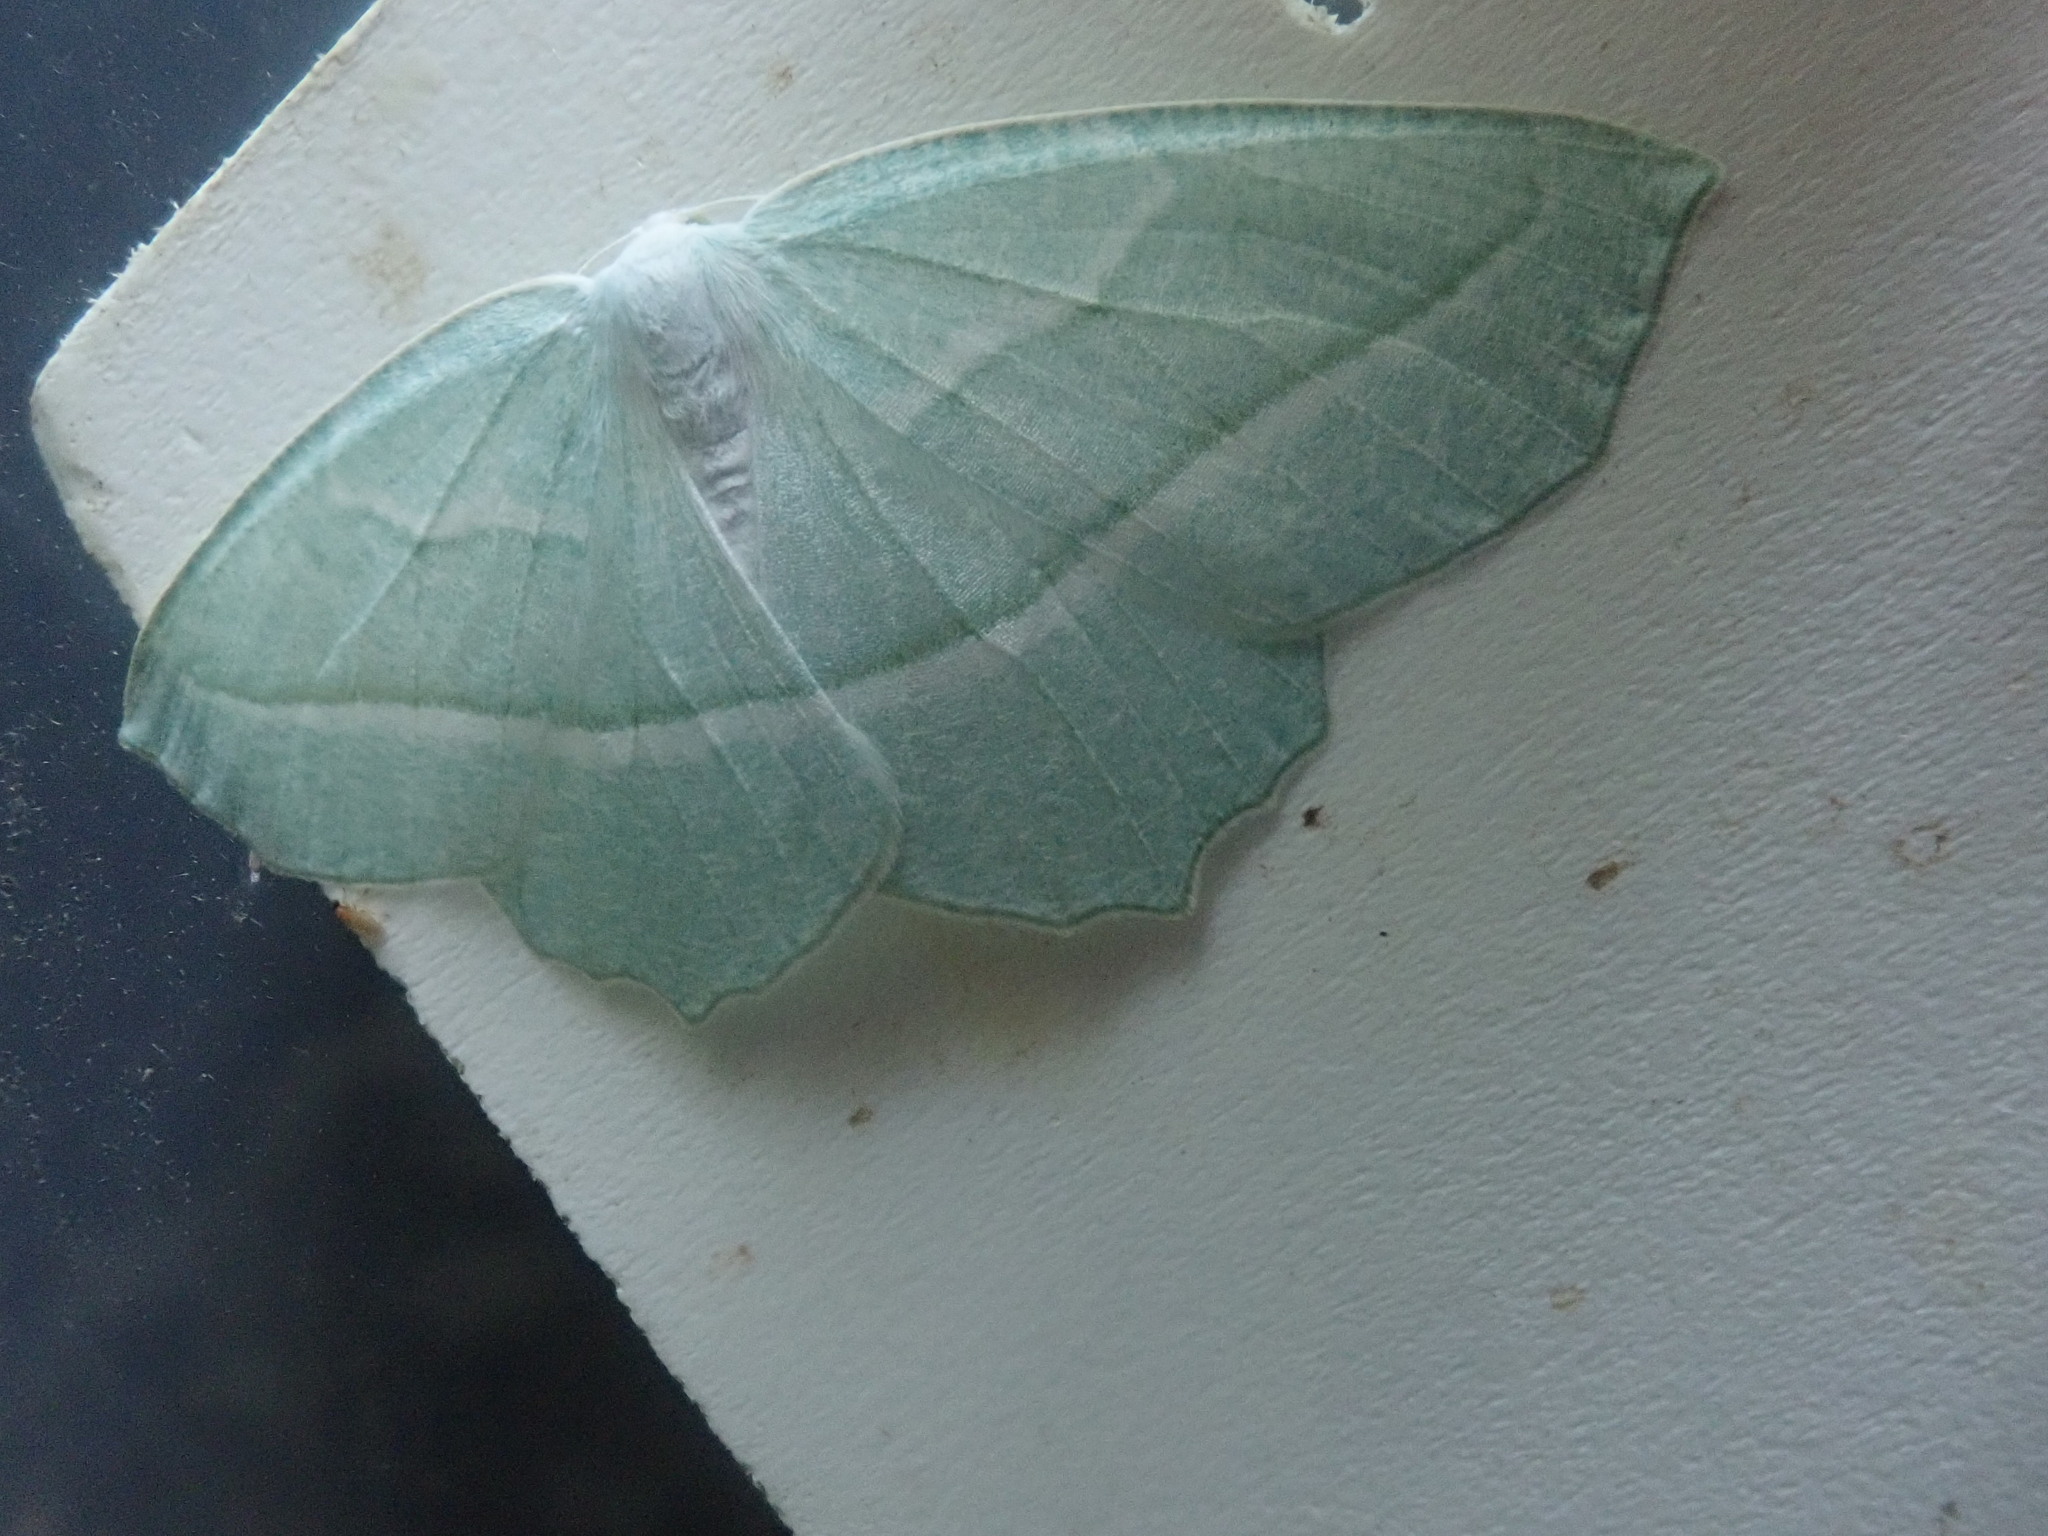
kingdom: Animalia
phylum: Arthropoda
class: Insecta
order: Lepidoptera
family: Geometridae
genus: Campaea
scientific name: Campaea perlata
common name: Fringed looper
